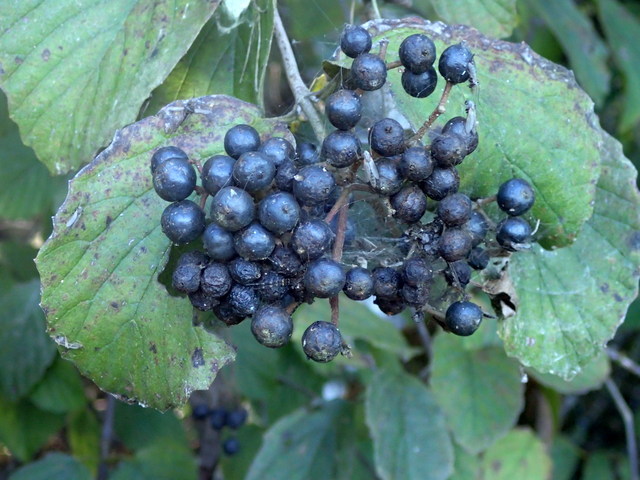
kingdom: Plantae
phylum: Tracheophyta
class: Magnoliopsida
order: Dipsacales
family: Viburnaceae
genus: Viburnum
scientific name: Viburnum scabrellum
